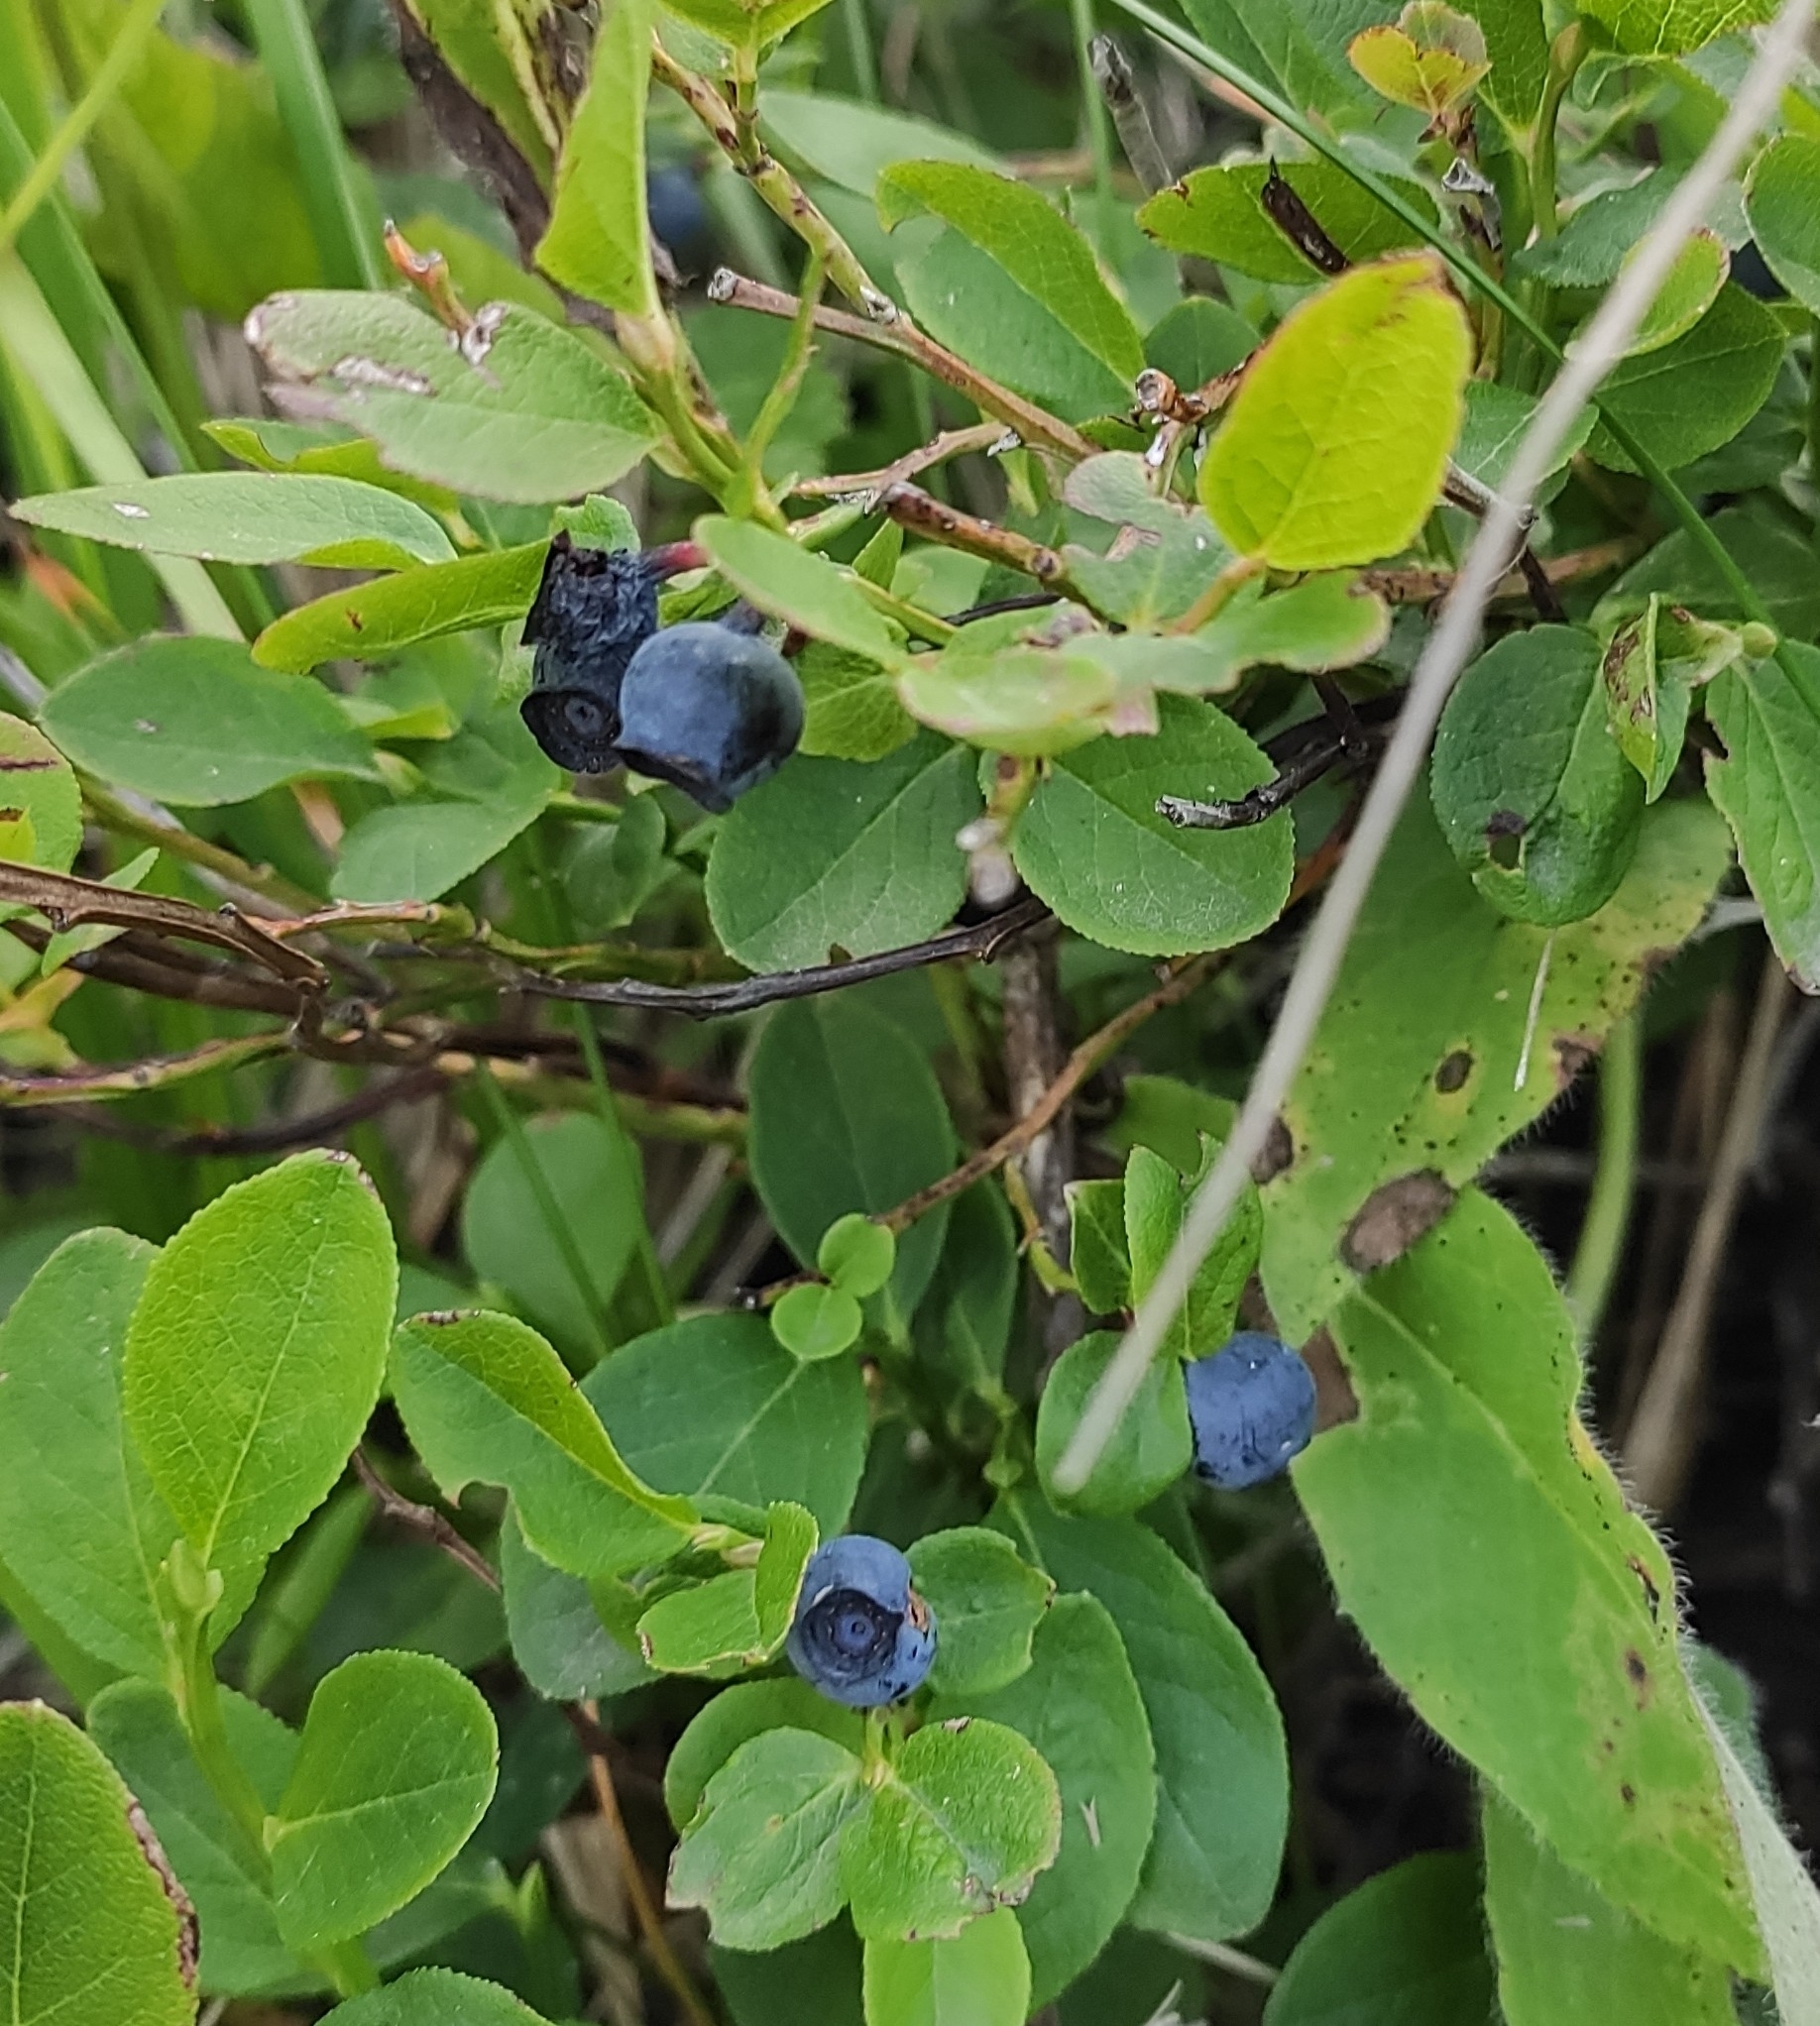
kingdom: Plantae
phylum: Tracheophyta
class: Magnoliopsida
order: Ericales
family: Ericaceae
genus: Vaccinium
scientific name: Vaccinium myrtillus
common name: Bilberry
